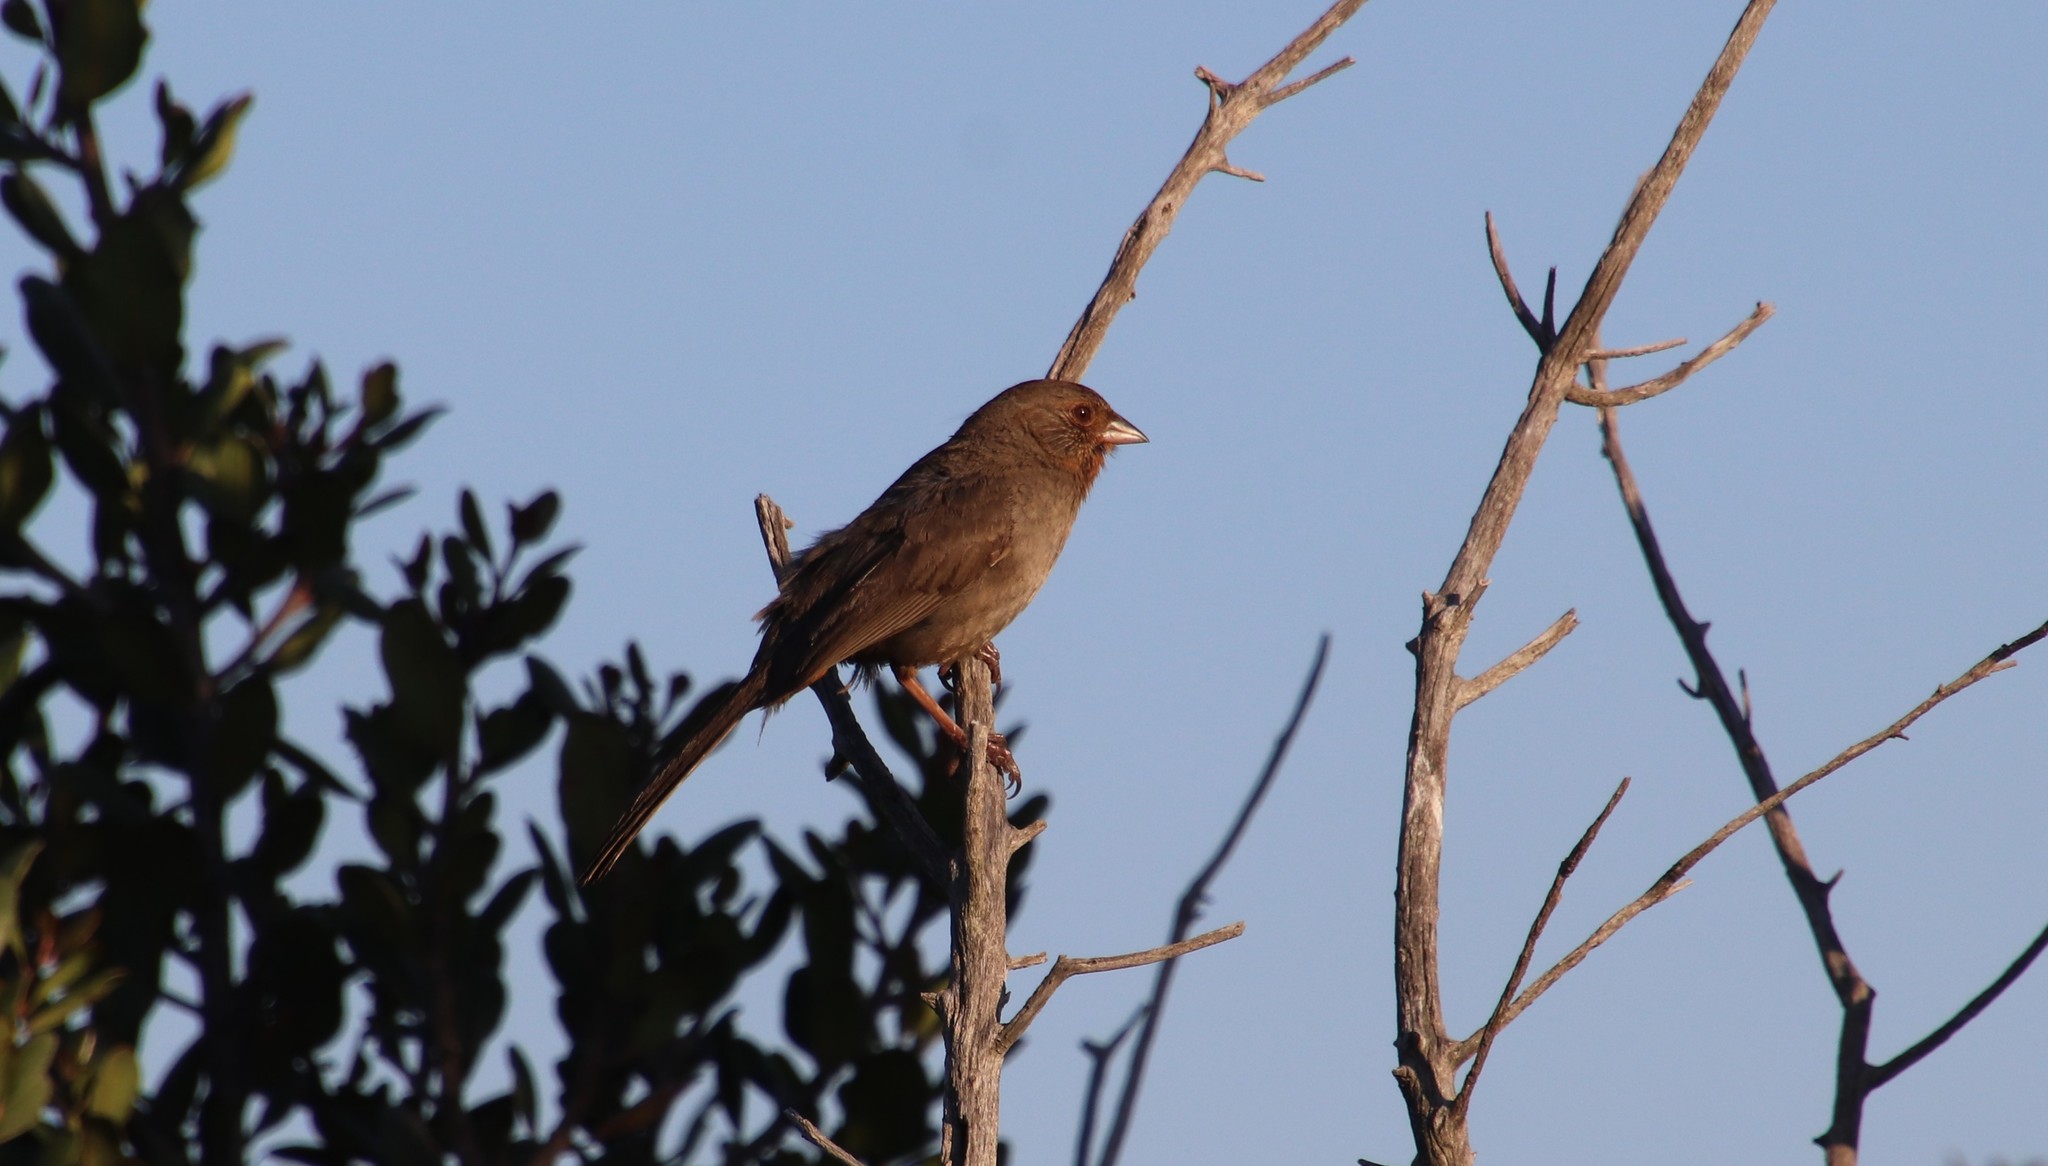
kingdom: Animalia
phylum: Chordata
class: Aves
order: Passeriformes
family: Passerellidae
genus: Melozone
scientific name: Melozone crissalis
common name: California towhee
